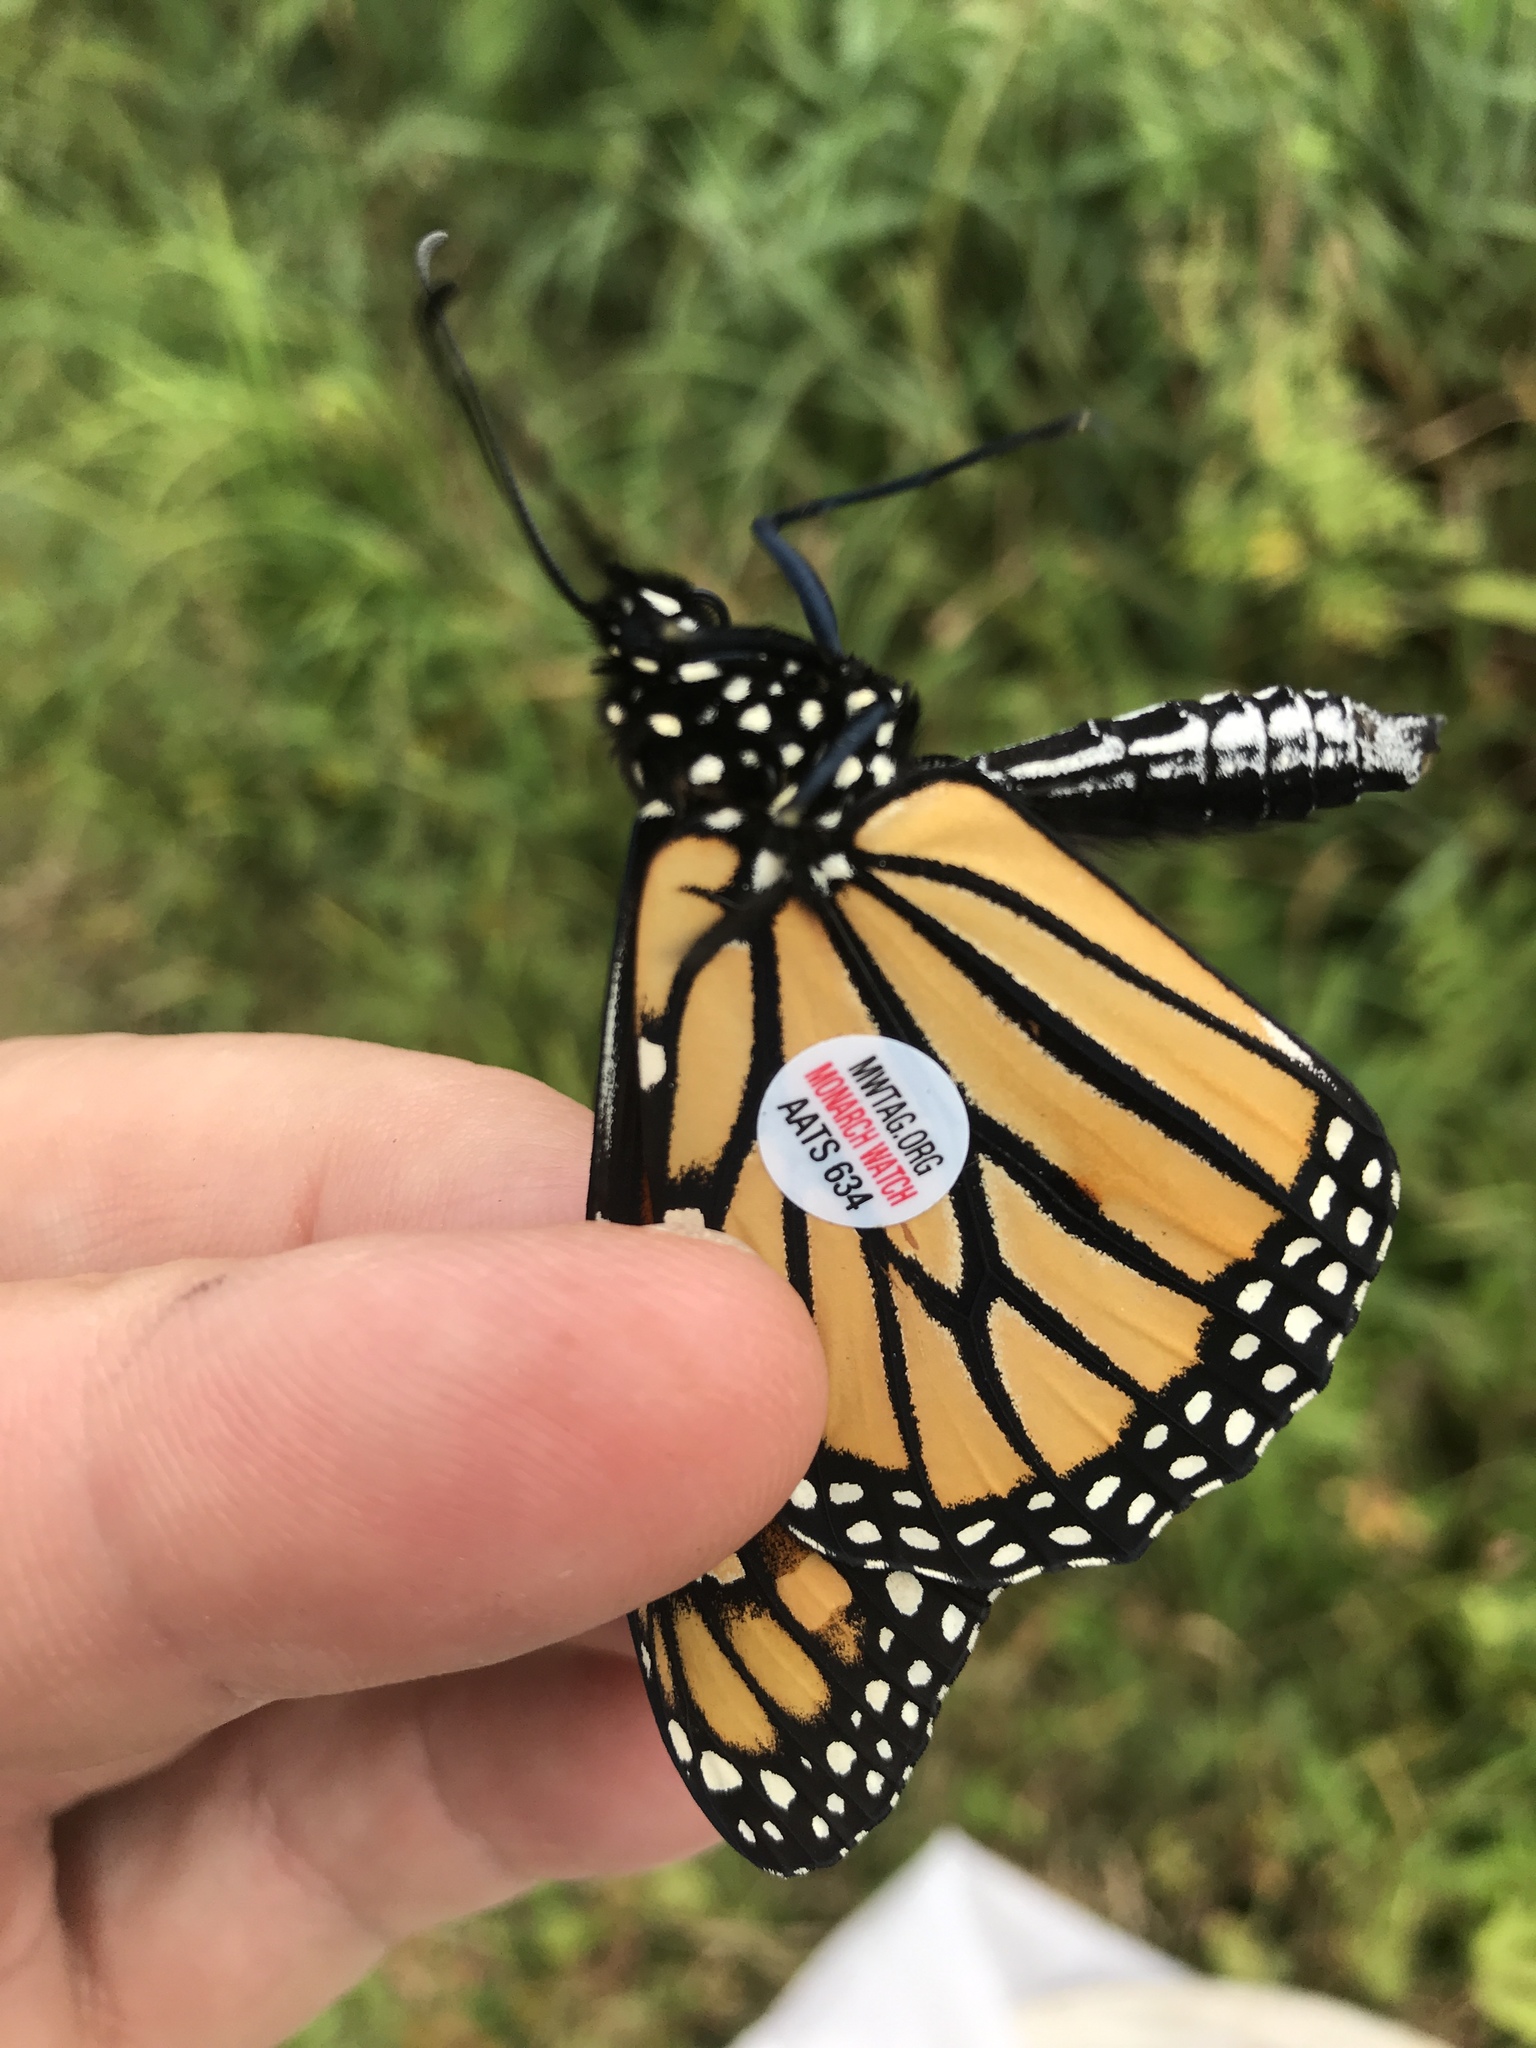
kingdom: Animalia
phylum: Arthropoda
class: Insecta
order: Lepidoptera
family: Nymphalidae
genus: Danaus
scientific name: Danaus plexippus
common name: Monarch
